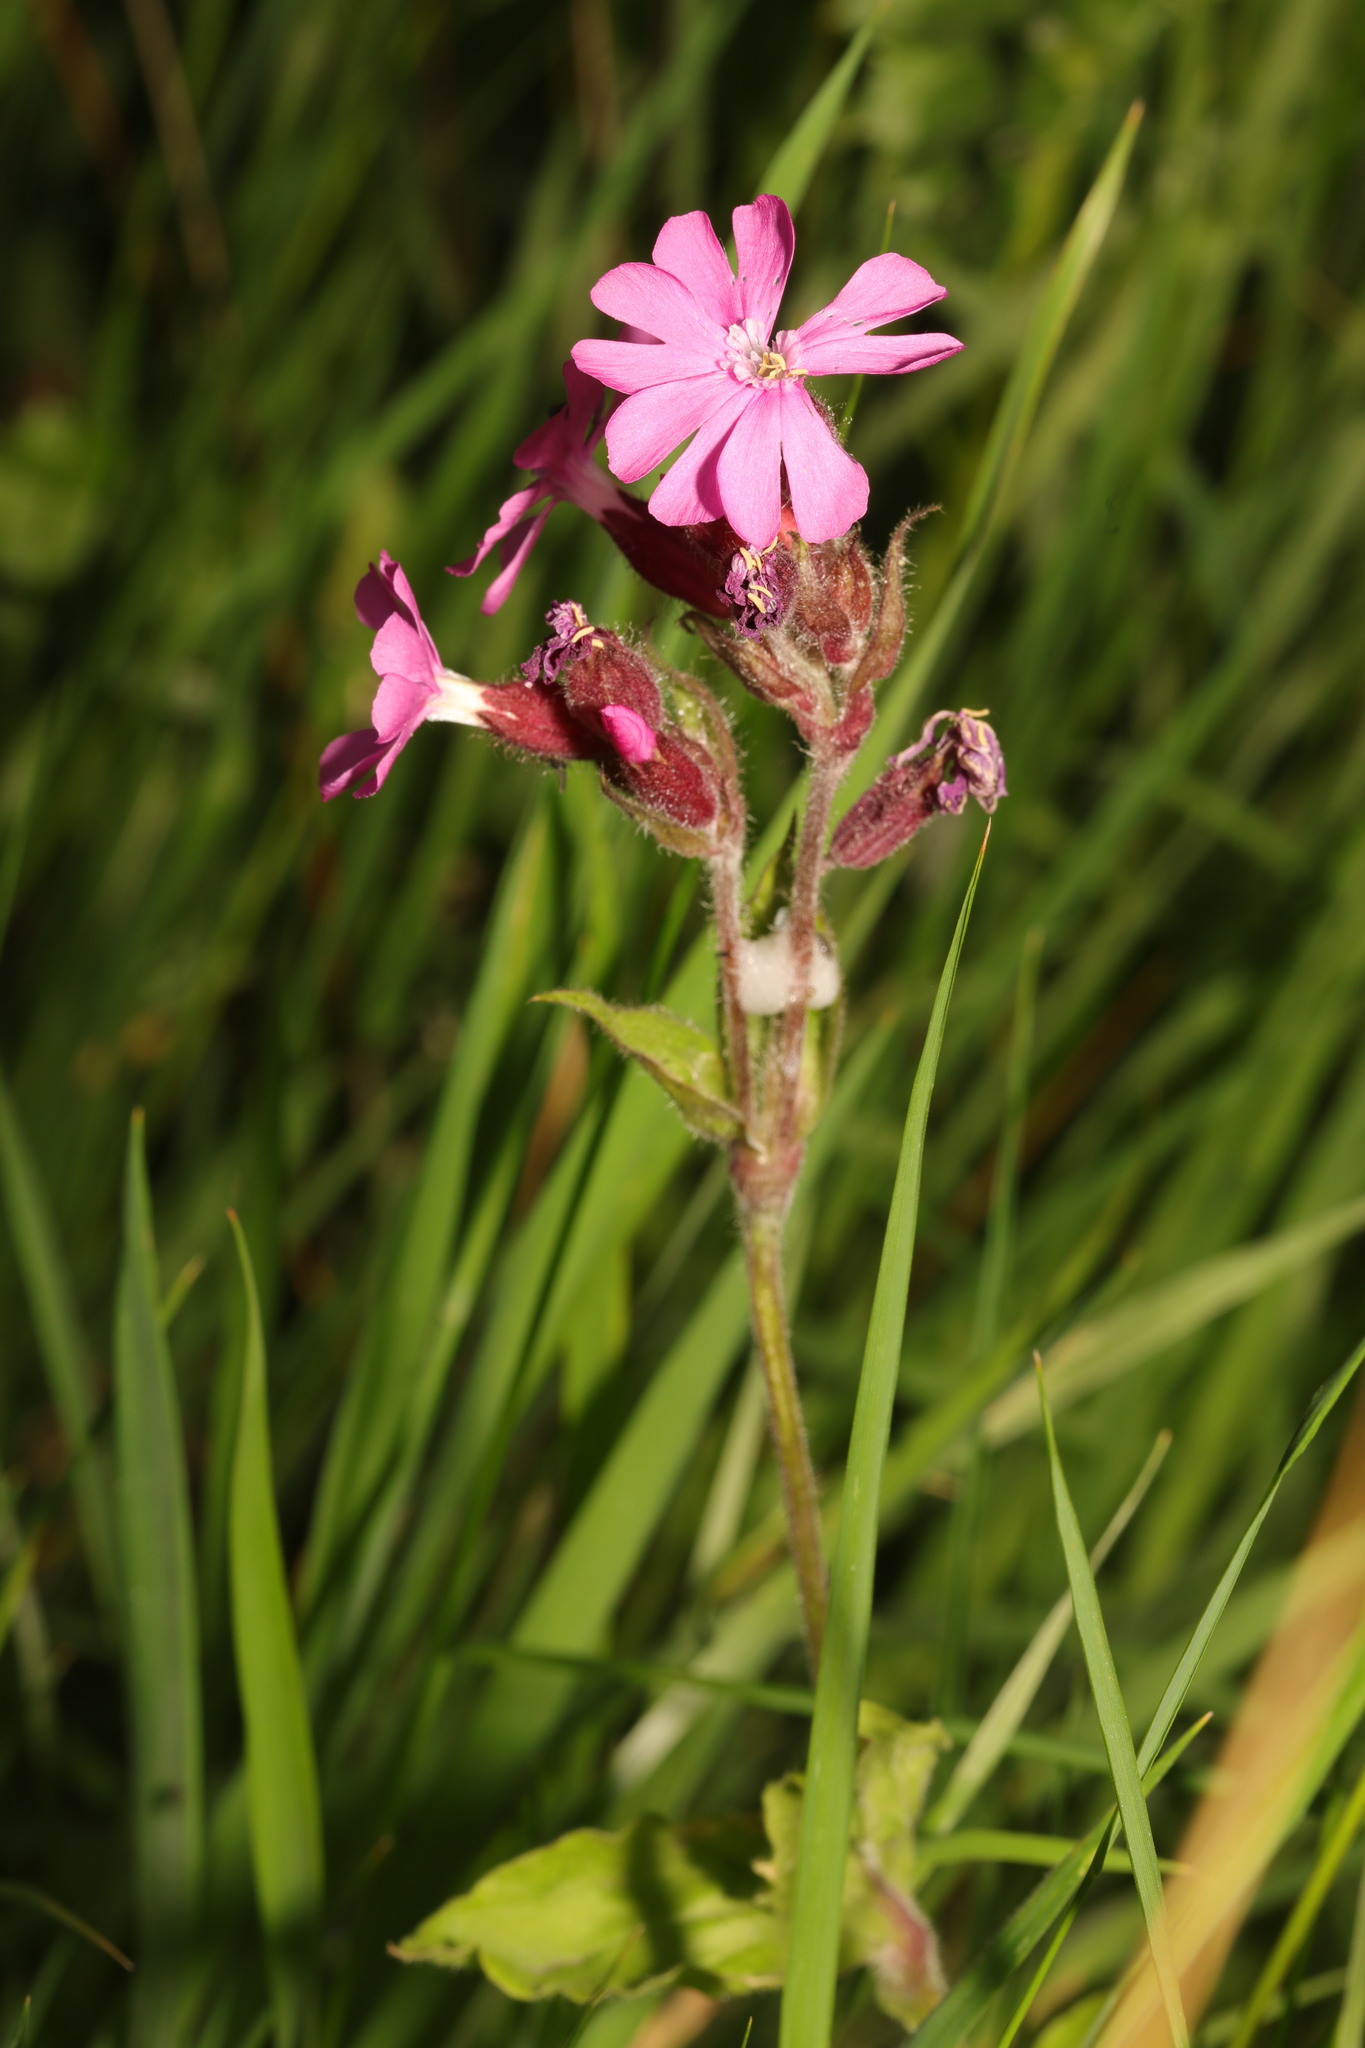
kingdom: Plantae
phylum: Tracheophyta
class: Magnoliopsida
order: Caryophyllales
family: Caryophyllaceae
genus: Silene
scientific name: Silene dioica
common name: Red campion
